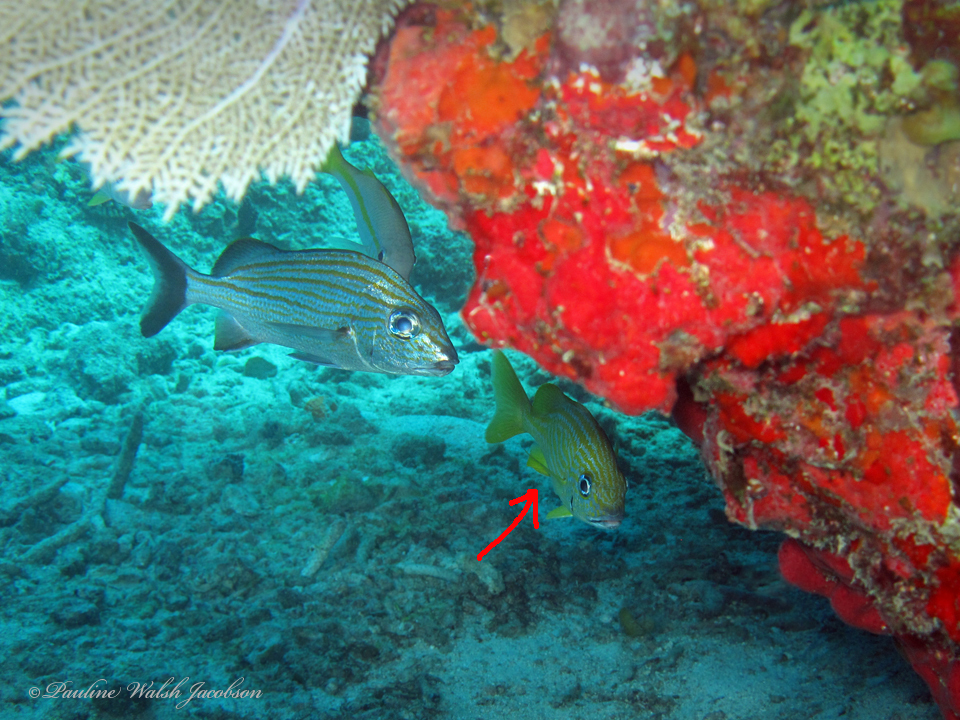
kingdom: Animalia
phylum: Chordata
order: Perciformes
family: Haemulidae
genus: Haemulon
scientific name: Haemulon flavolineatum
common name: French grunt
